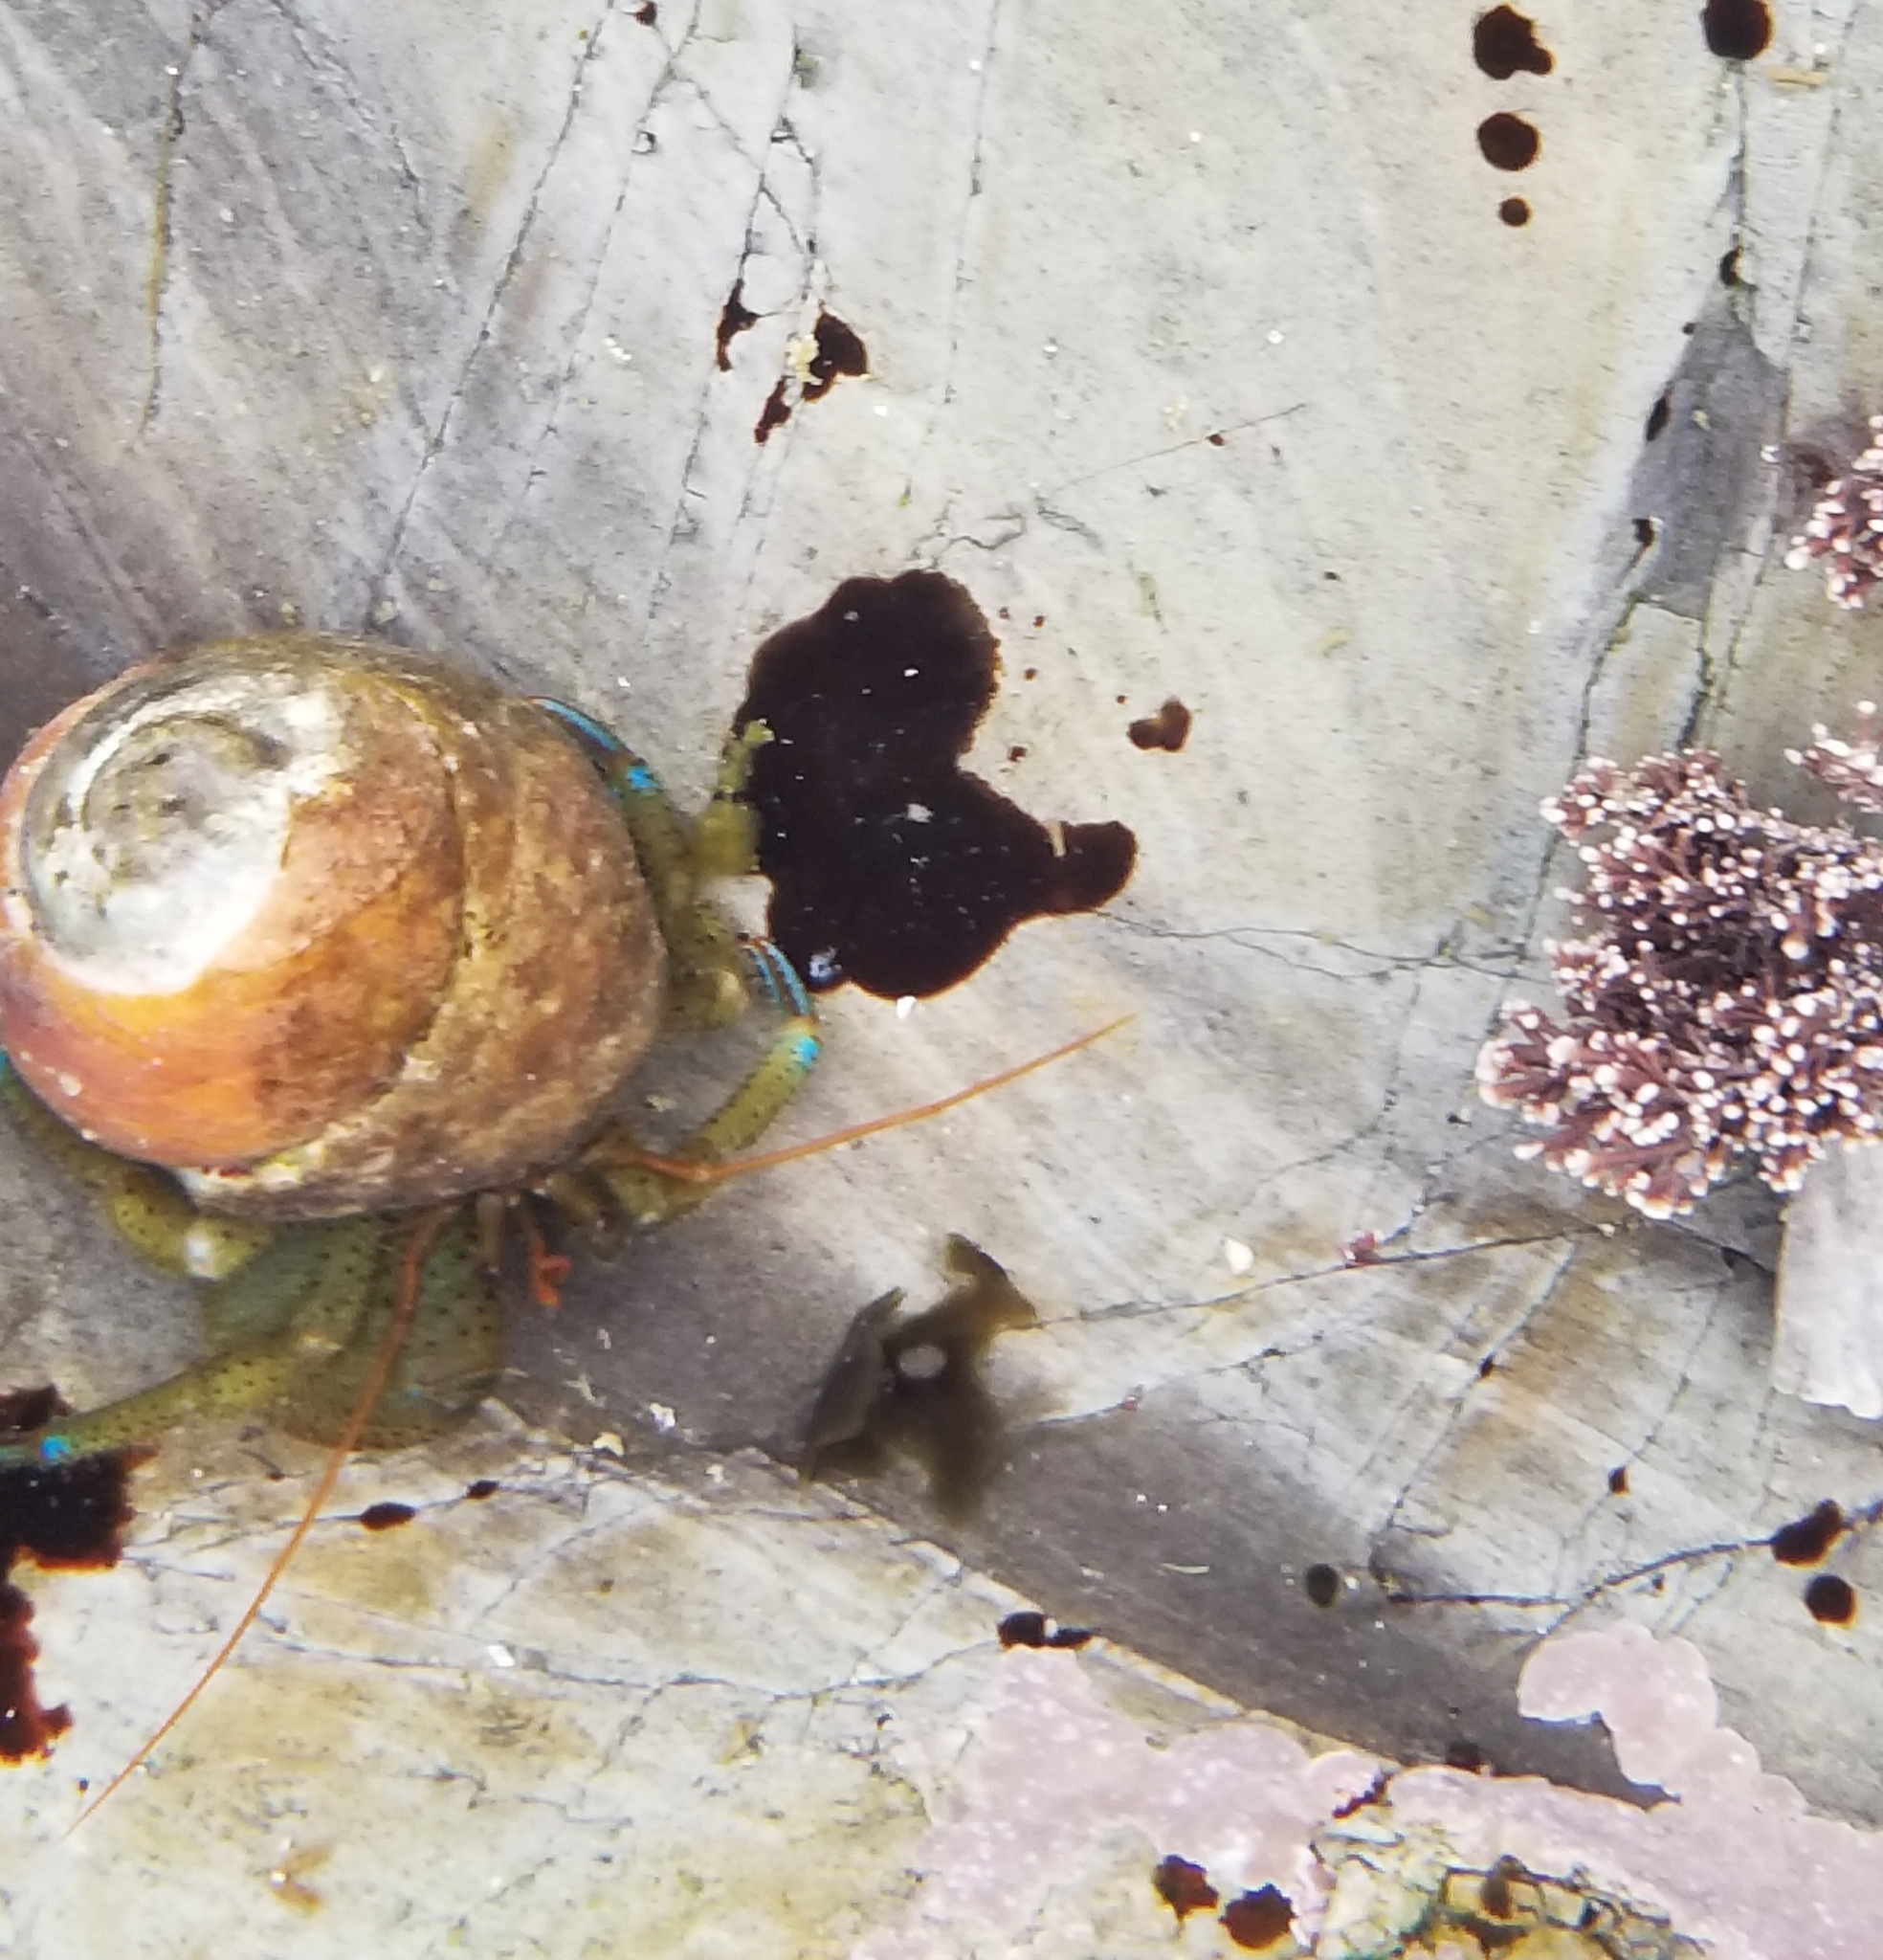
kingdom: Animalia
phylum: Arthropoda
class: Malacostraca
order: Decapoda
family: Paguridae
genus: Pagurus
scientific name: Pagurus samuelis
